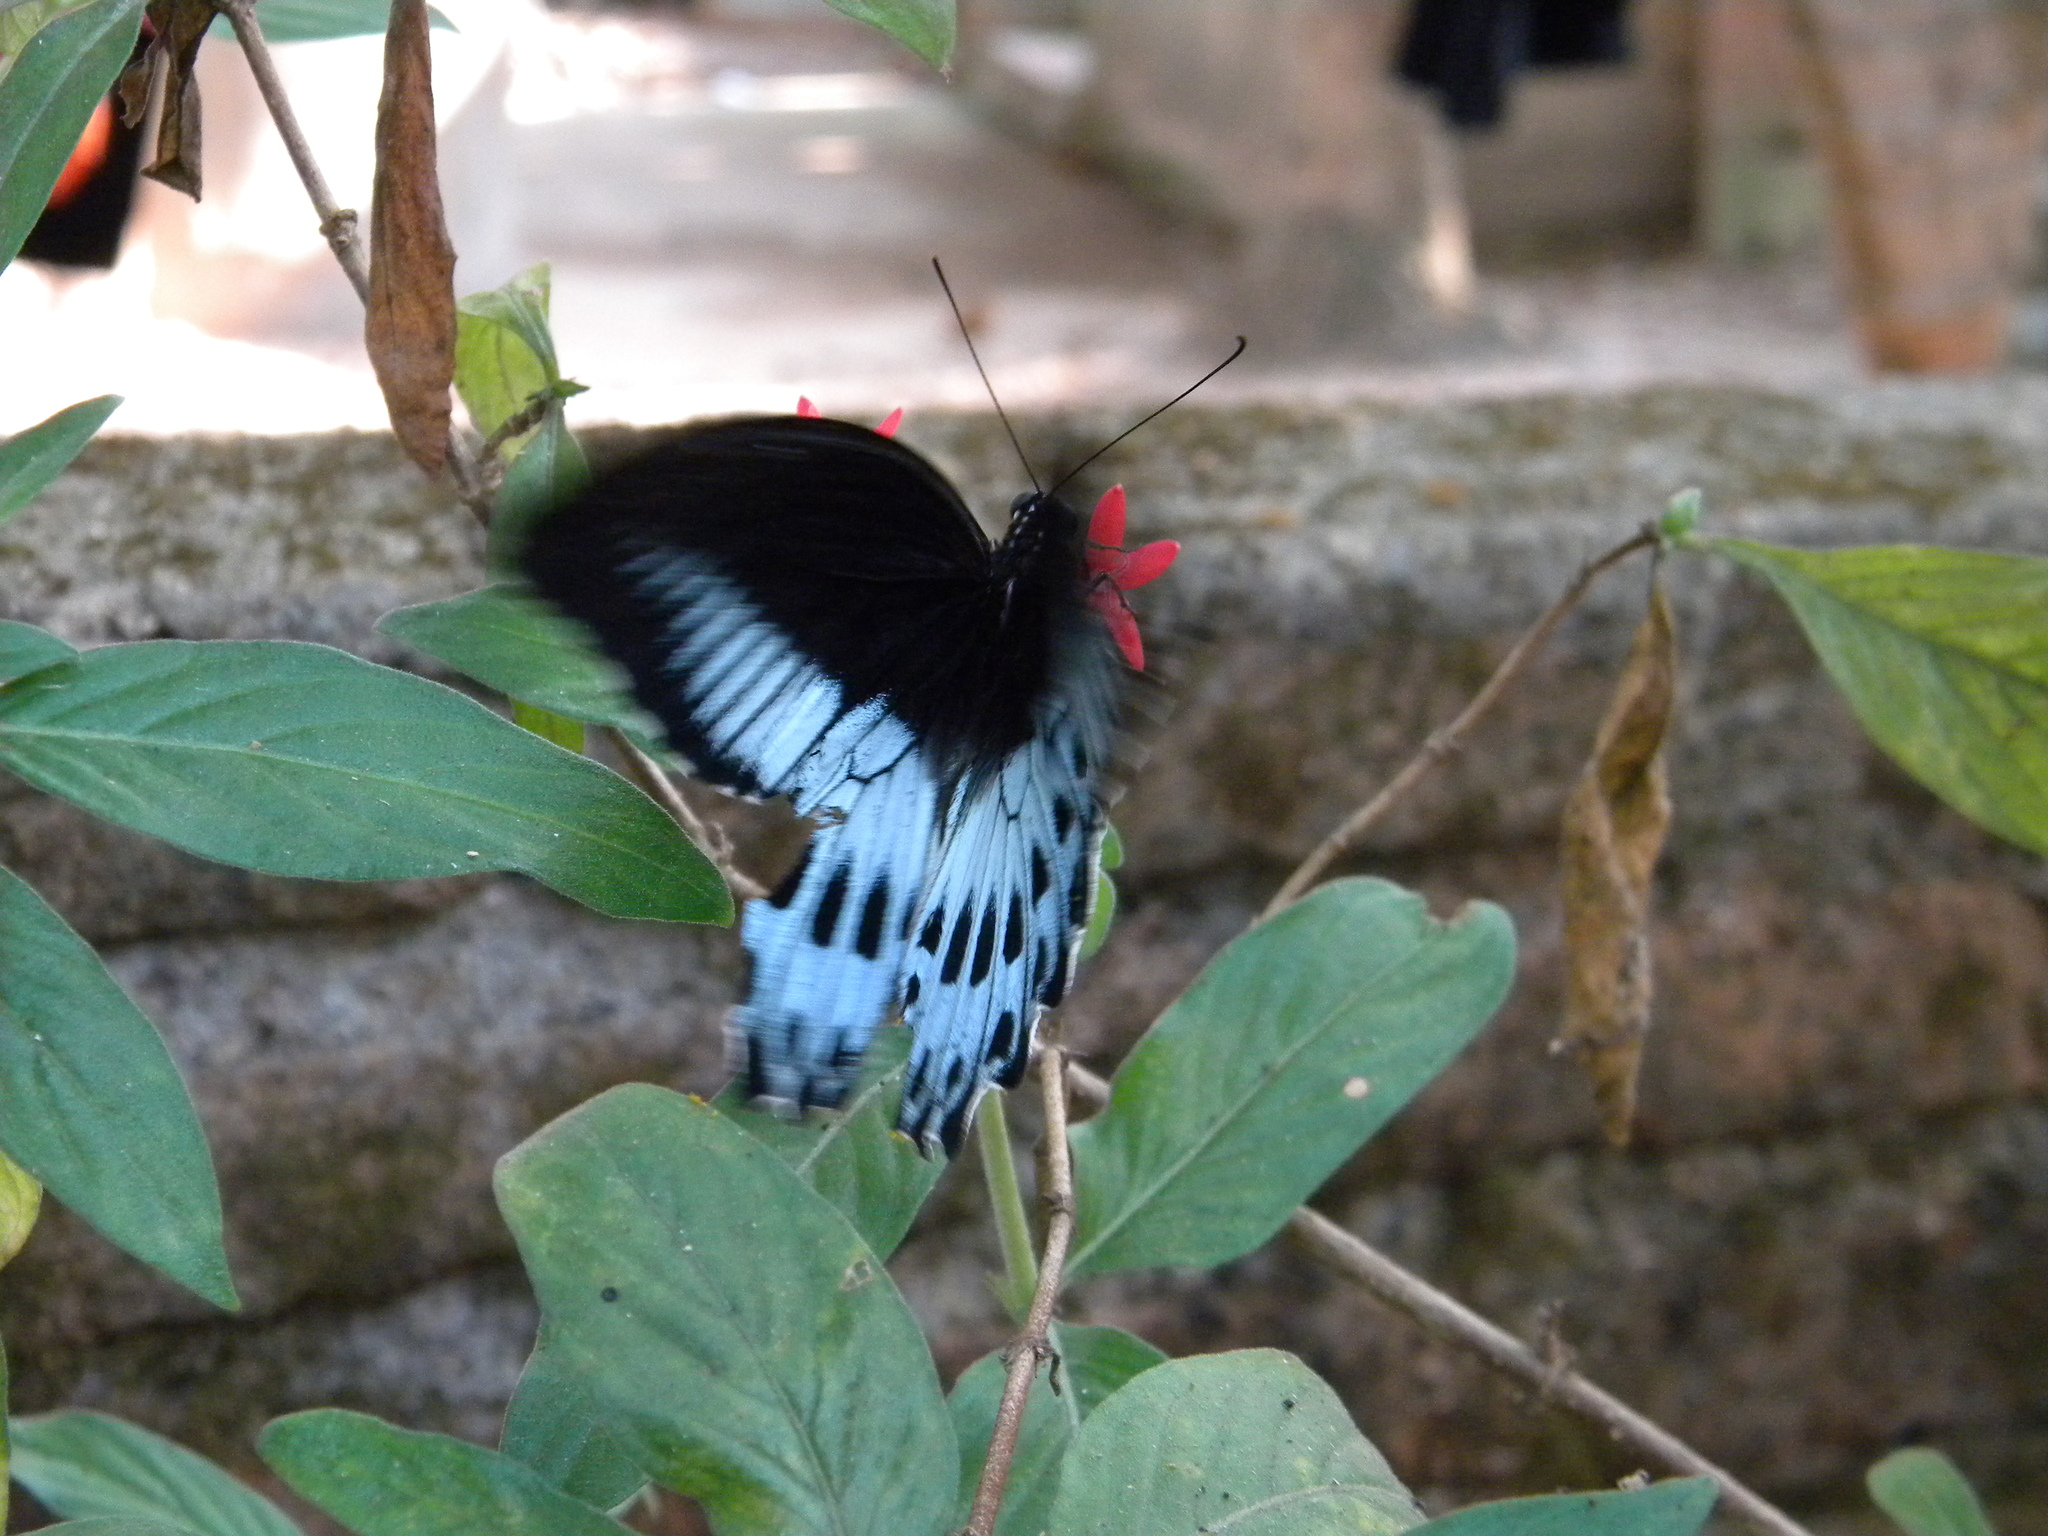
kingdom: Animalia
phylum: Arthropoda
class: Insecta
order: Lepidoptera
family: Papilionidae
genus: Papilio
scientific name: Papilio memnon
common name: Great mormon
